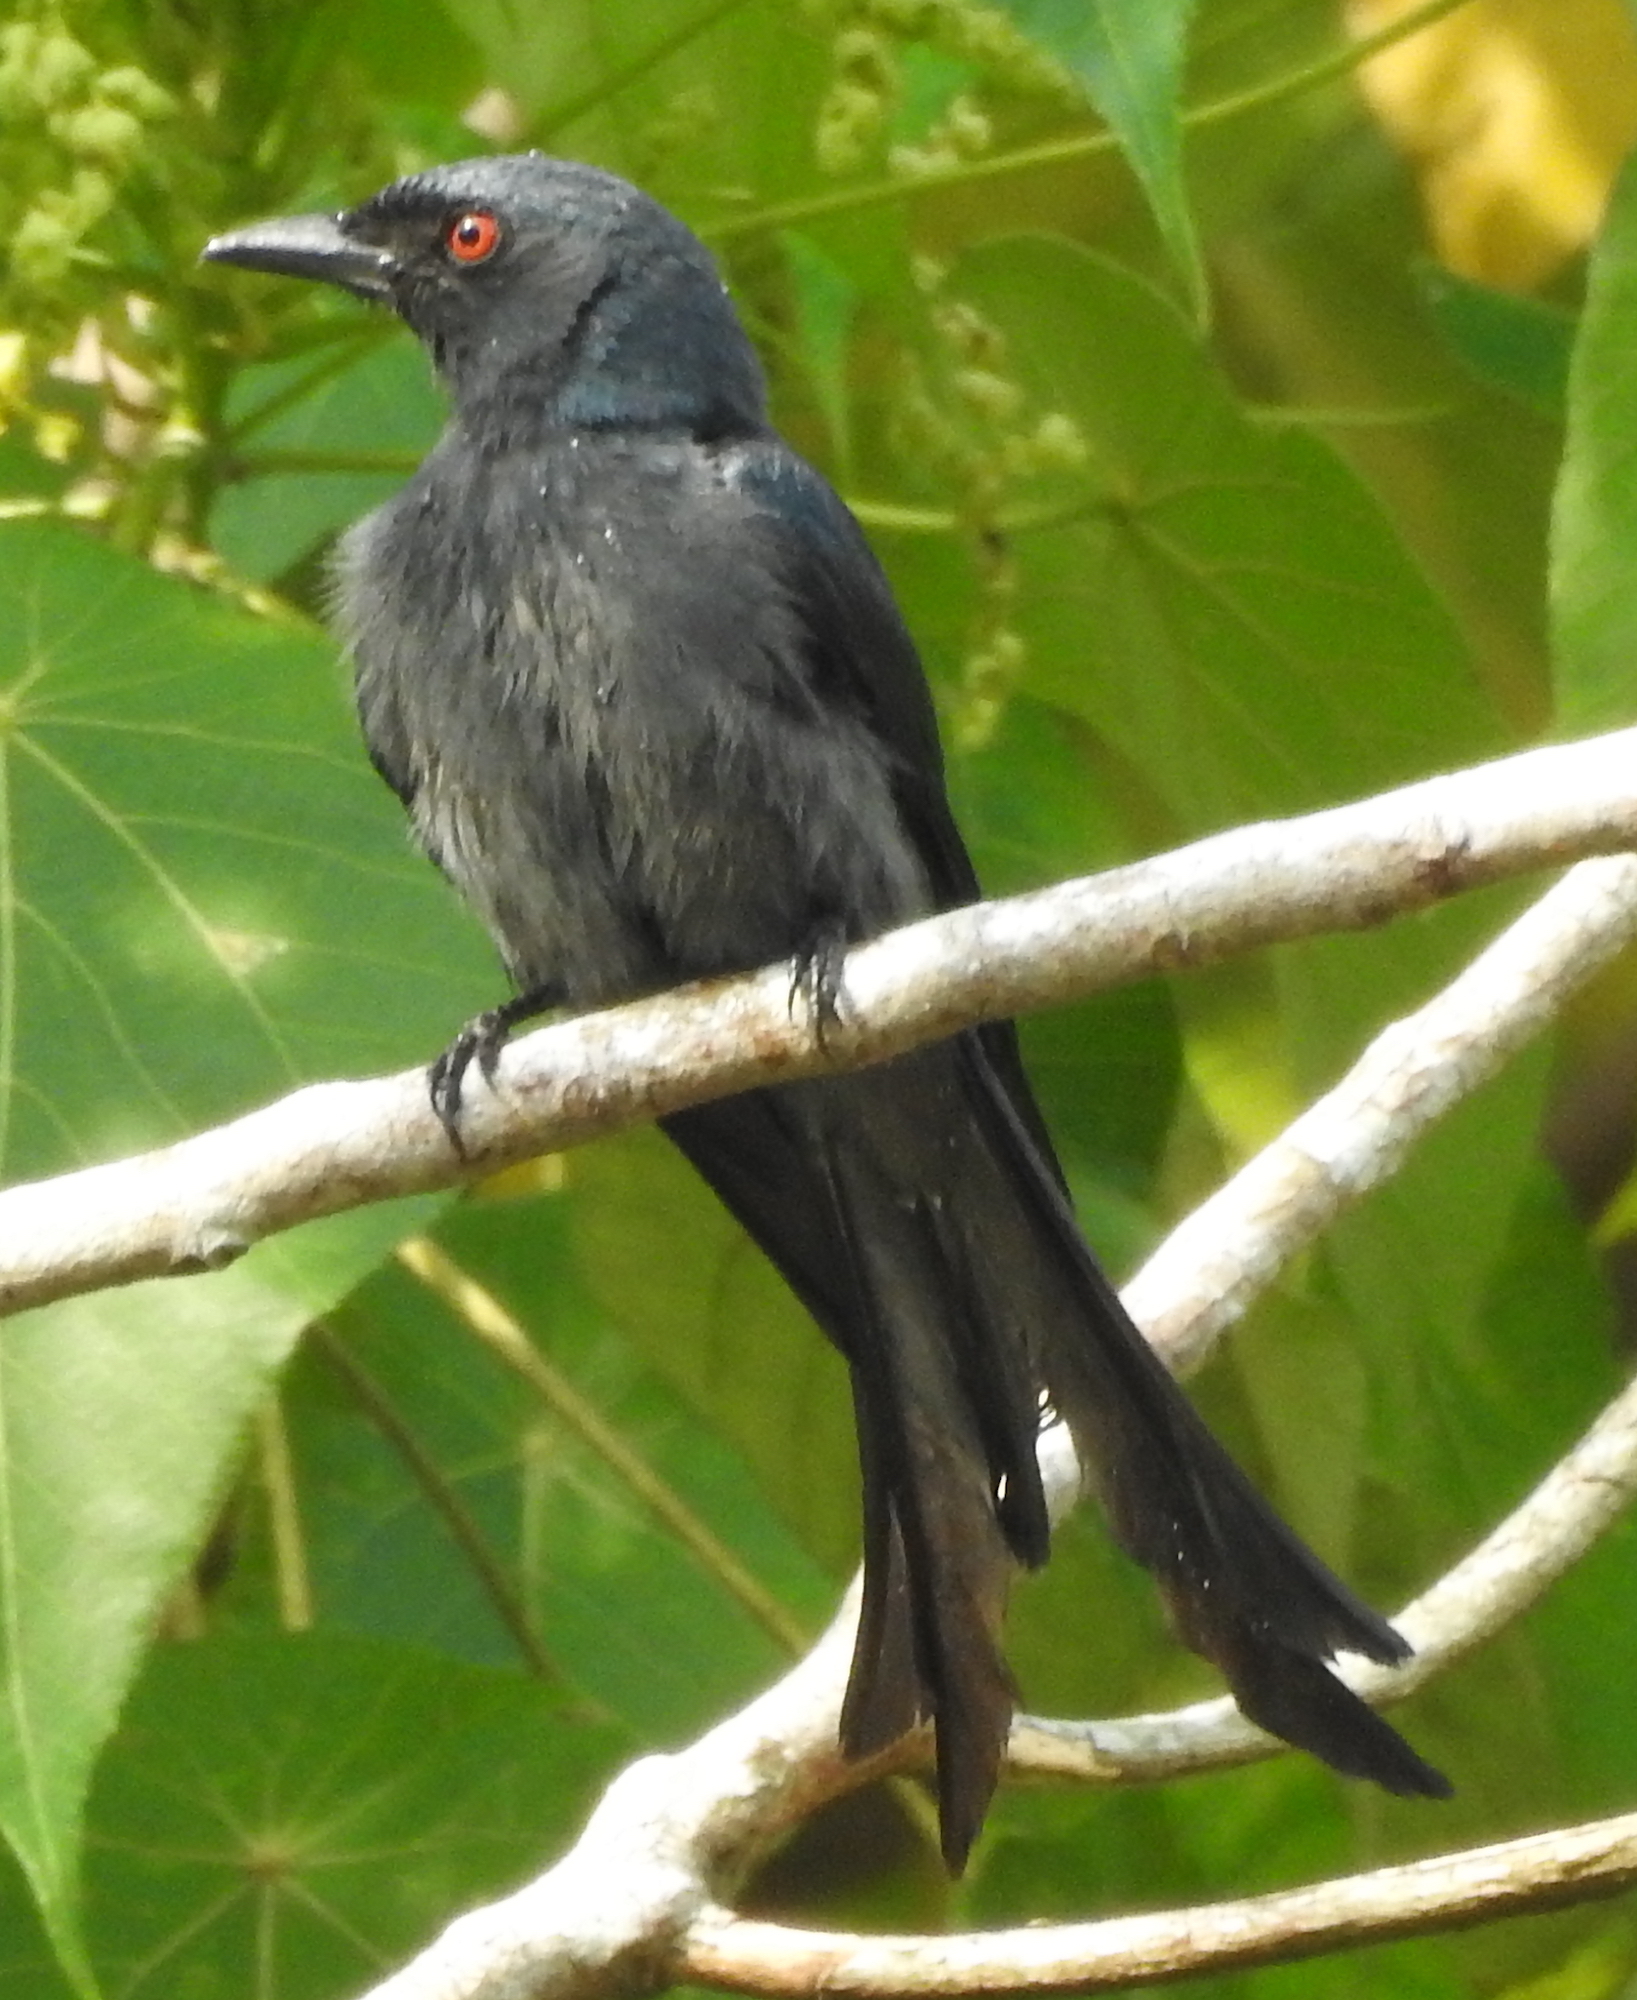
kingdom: Animalia
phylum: Chordata
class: Aves
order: Passeriformes
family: Dicruridae
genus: Dicrurus
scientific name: Dicrurus leucophaeus
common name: Ashy drongo
